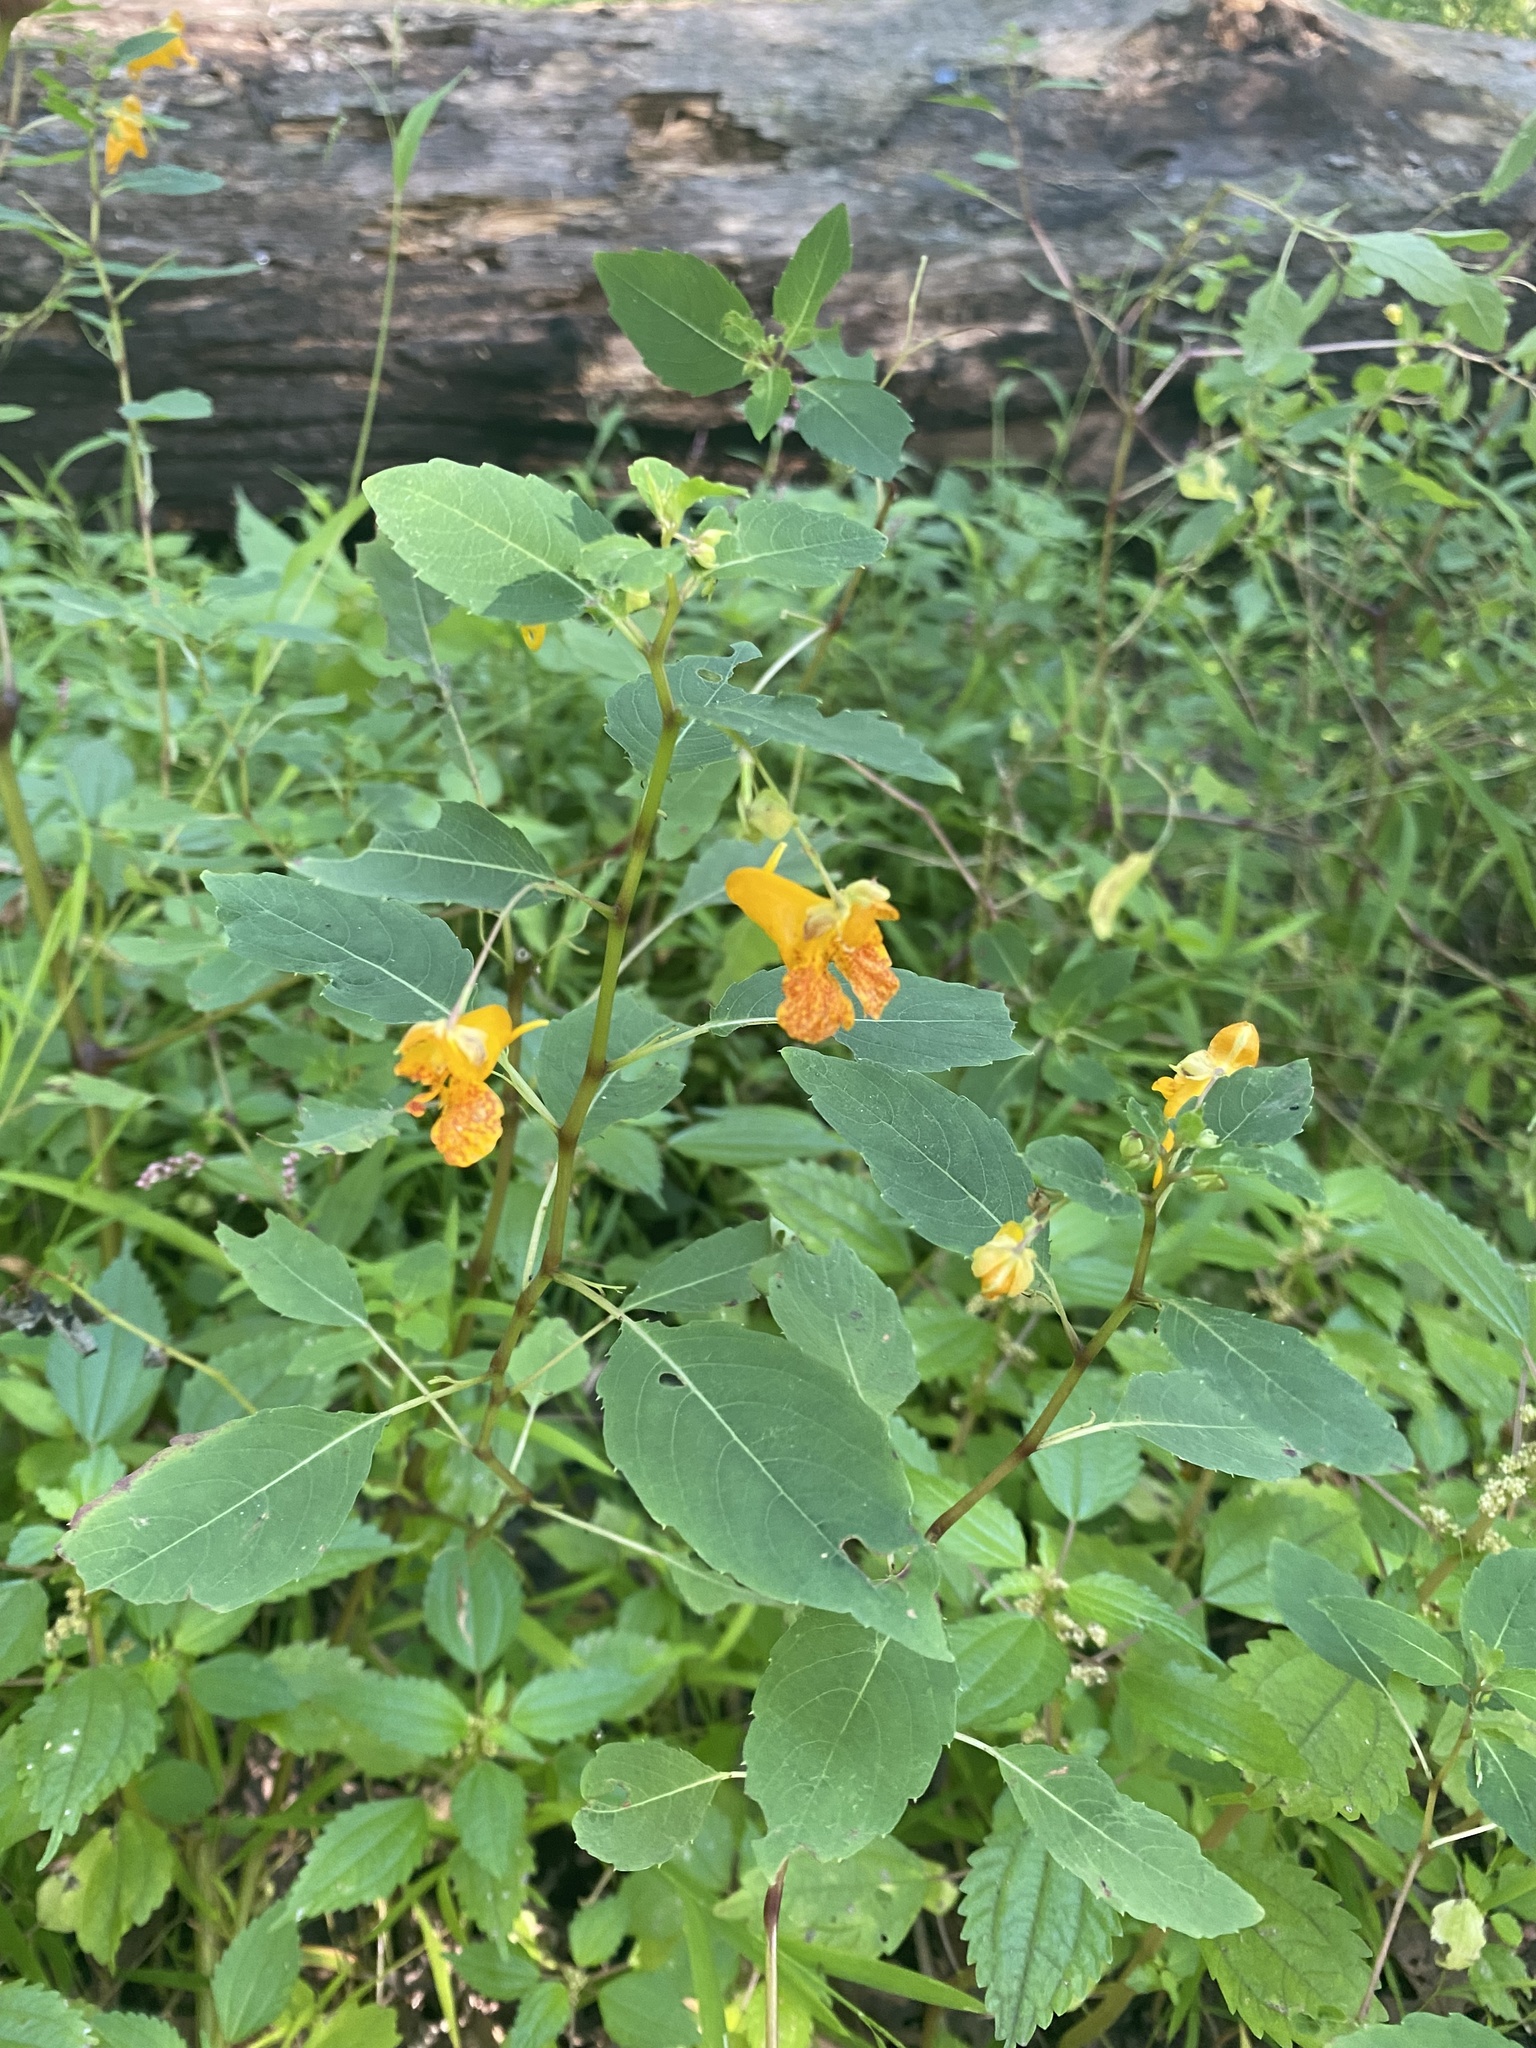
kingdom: Plantae
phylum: Tracheophyta
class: Magnoliopsida
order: Ericales
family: Balsaminaceae
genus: Impatiens
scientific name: Impatiens capensis
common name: Orange balsam
